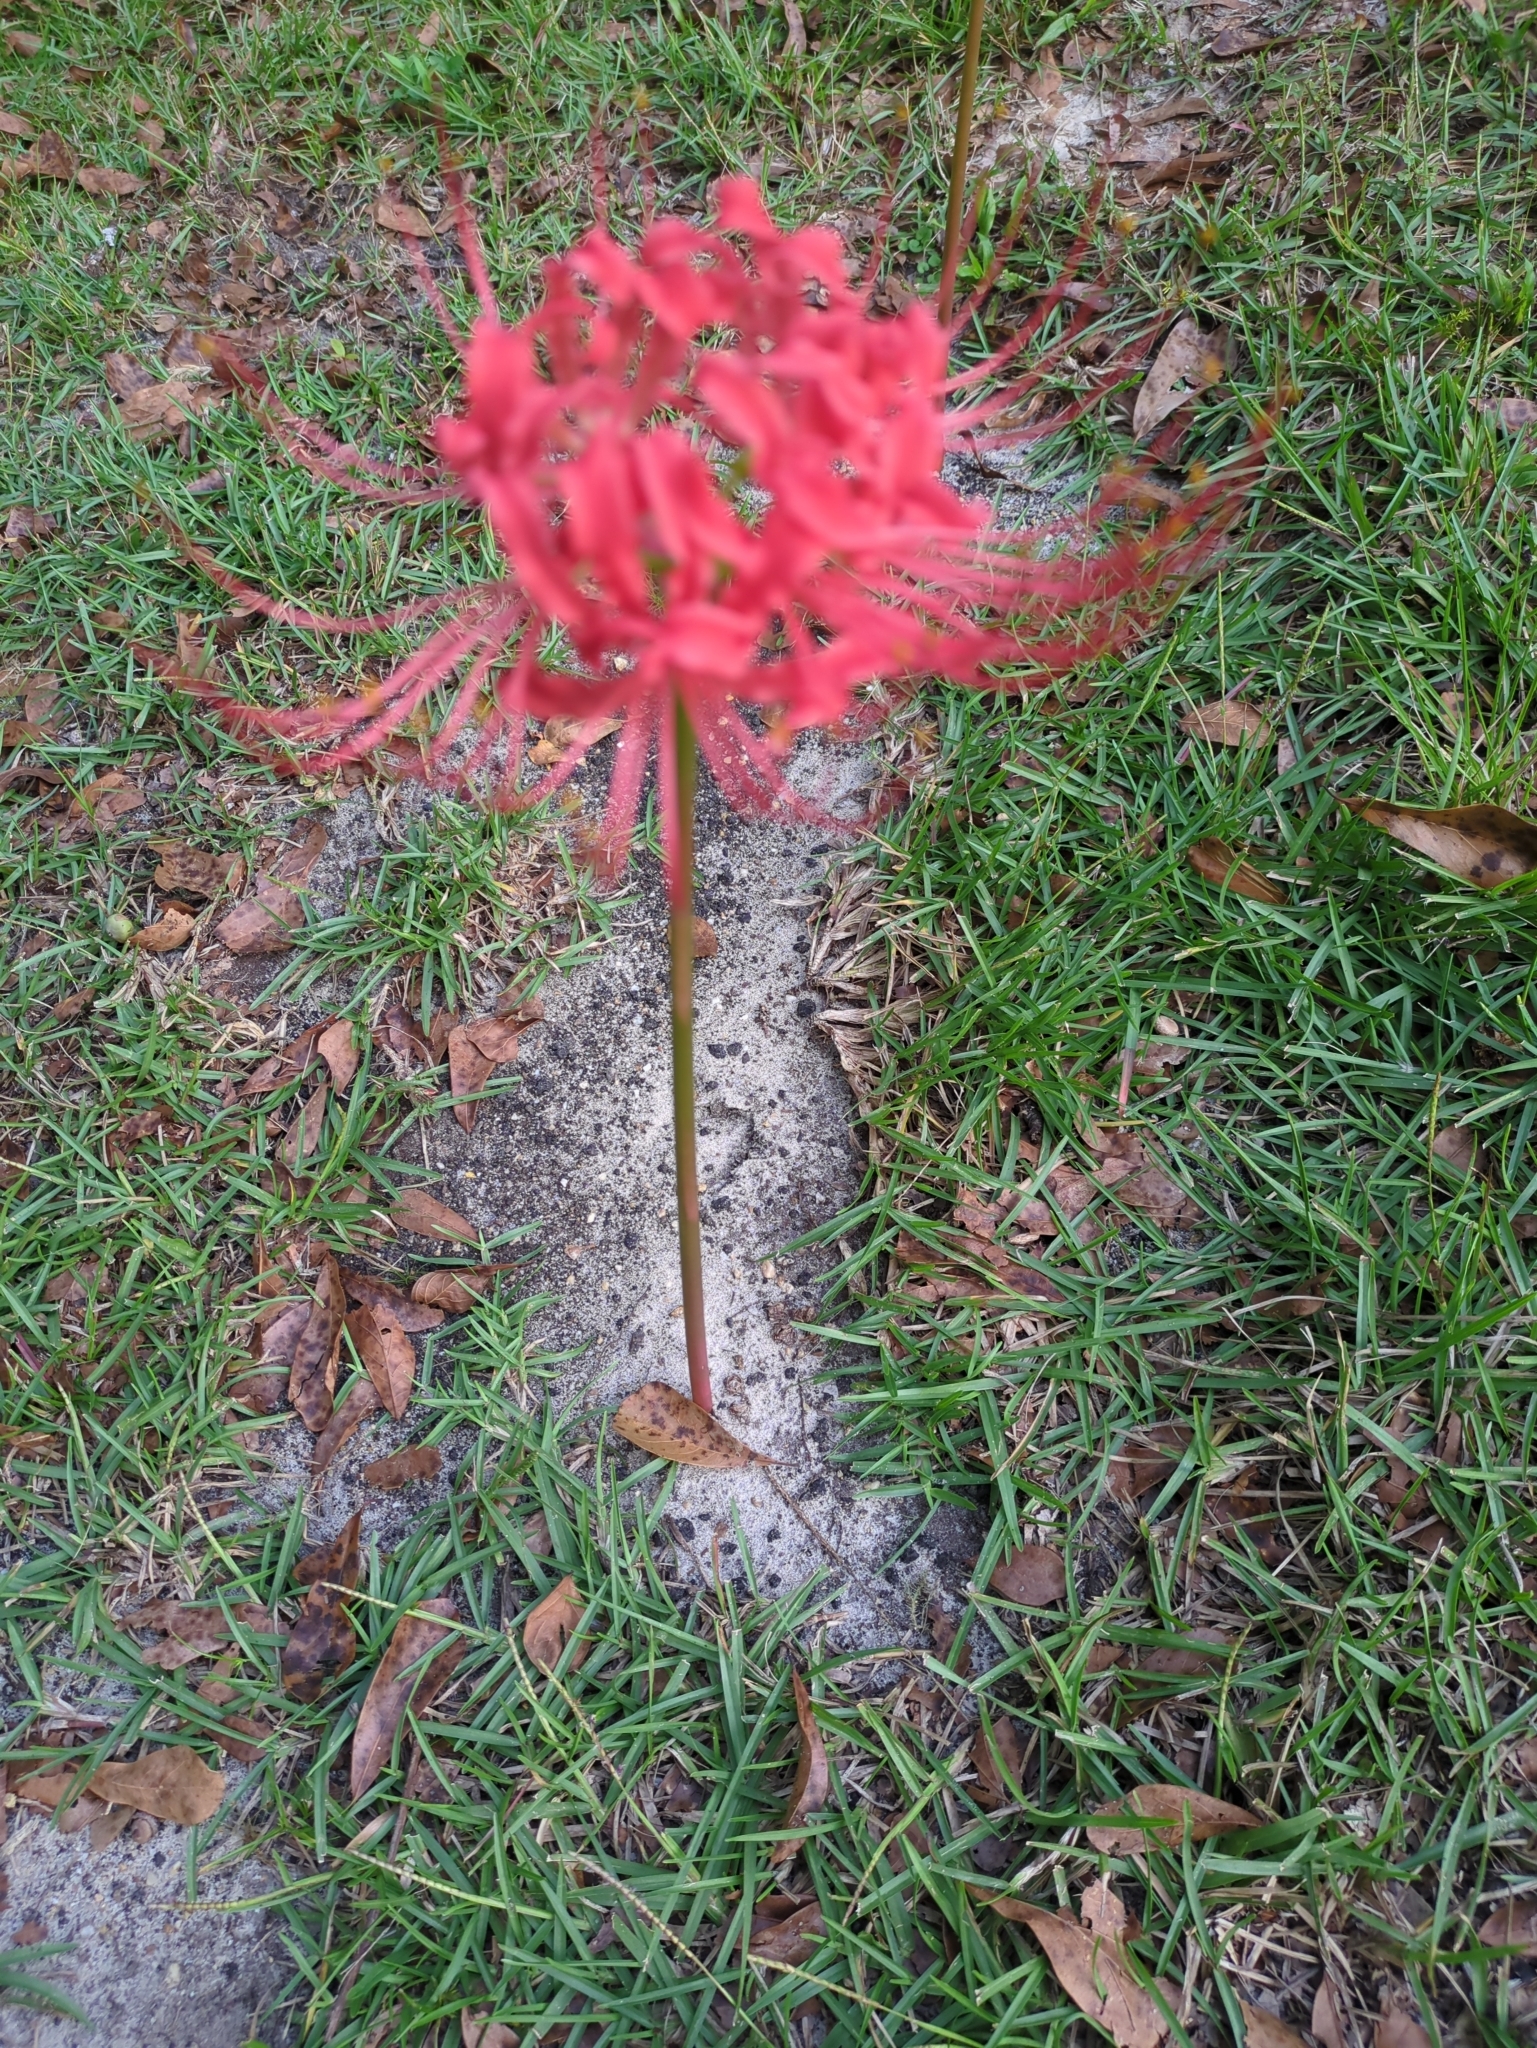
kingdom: Plantae
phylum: Tracheophyta
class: Liliopsida
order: Asparagales
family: Amaryllidaceae
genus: Lycoris
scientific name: Lycoris radiata
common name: Red spider lily
